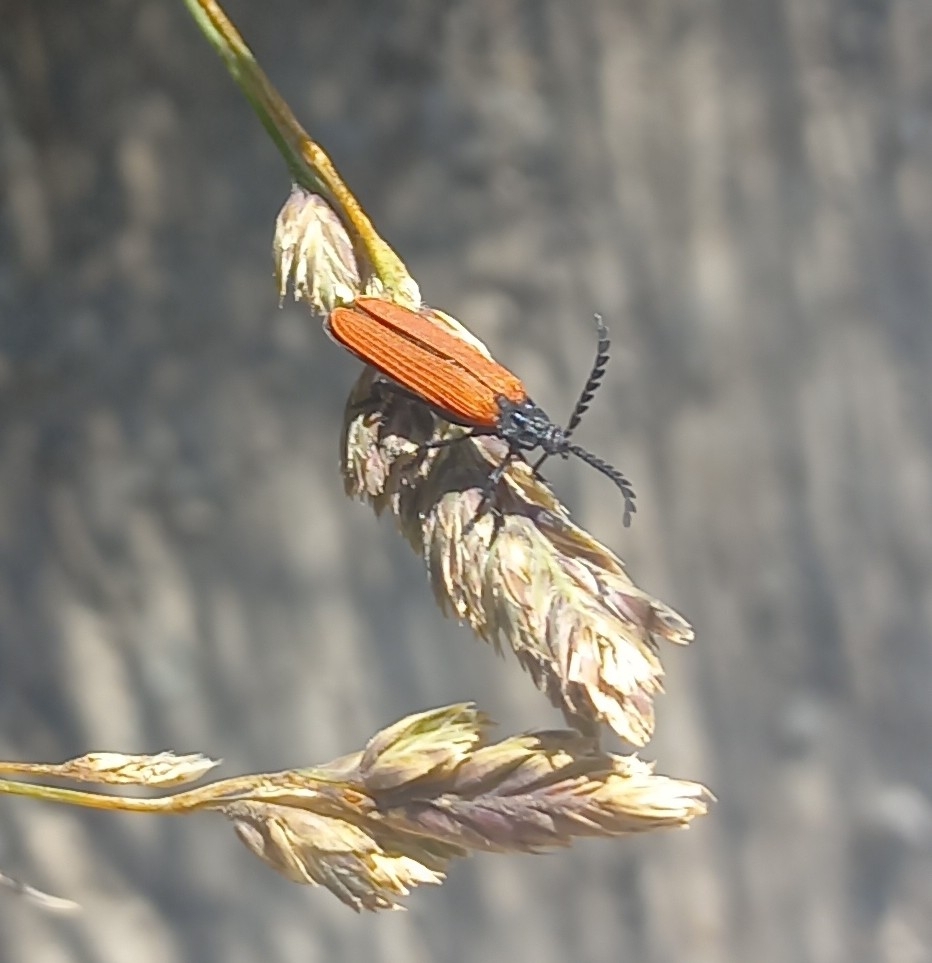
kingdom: Animalia
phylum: Arthropoda
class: Insecta
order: Coleoptera
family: Lycidae
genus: Porrostoma
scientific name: Porrostoma rufipenne
